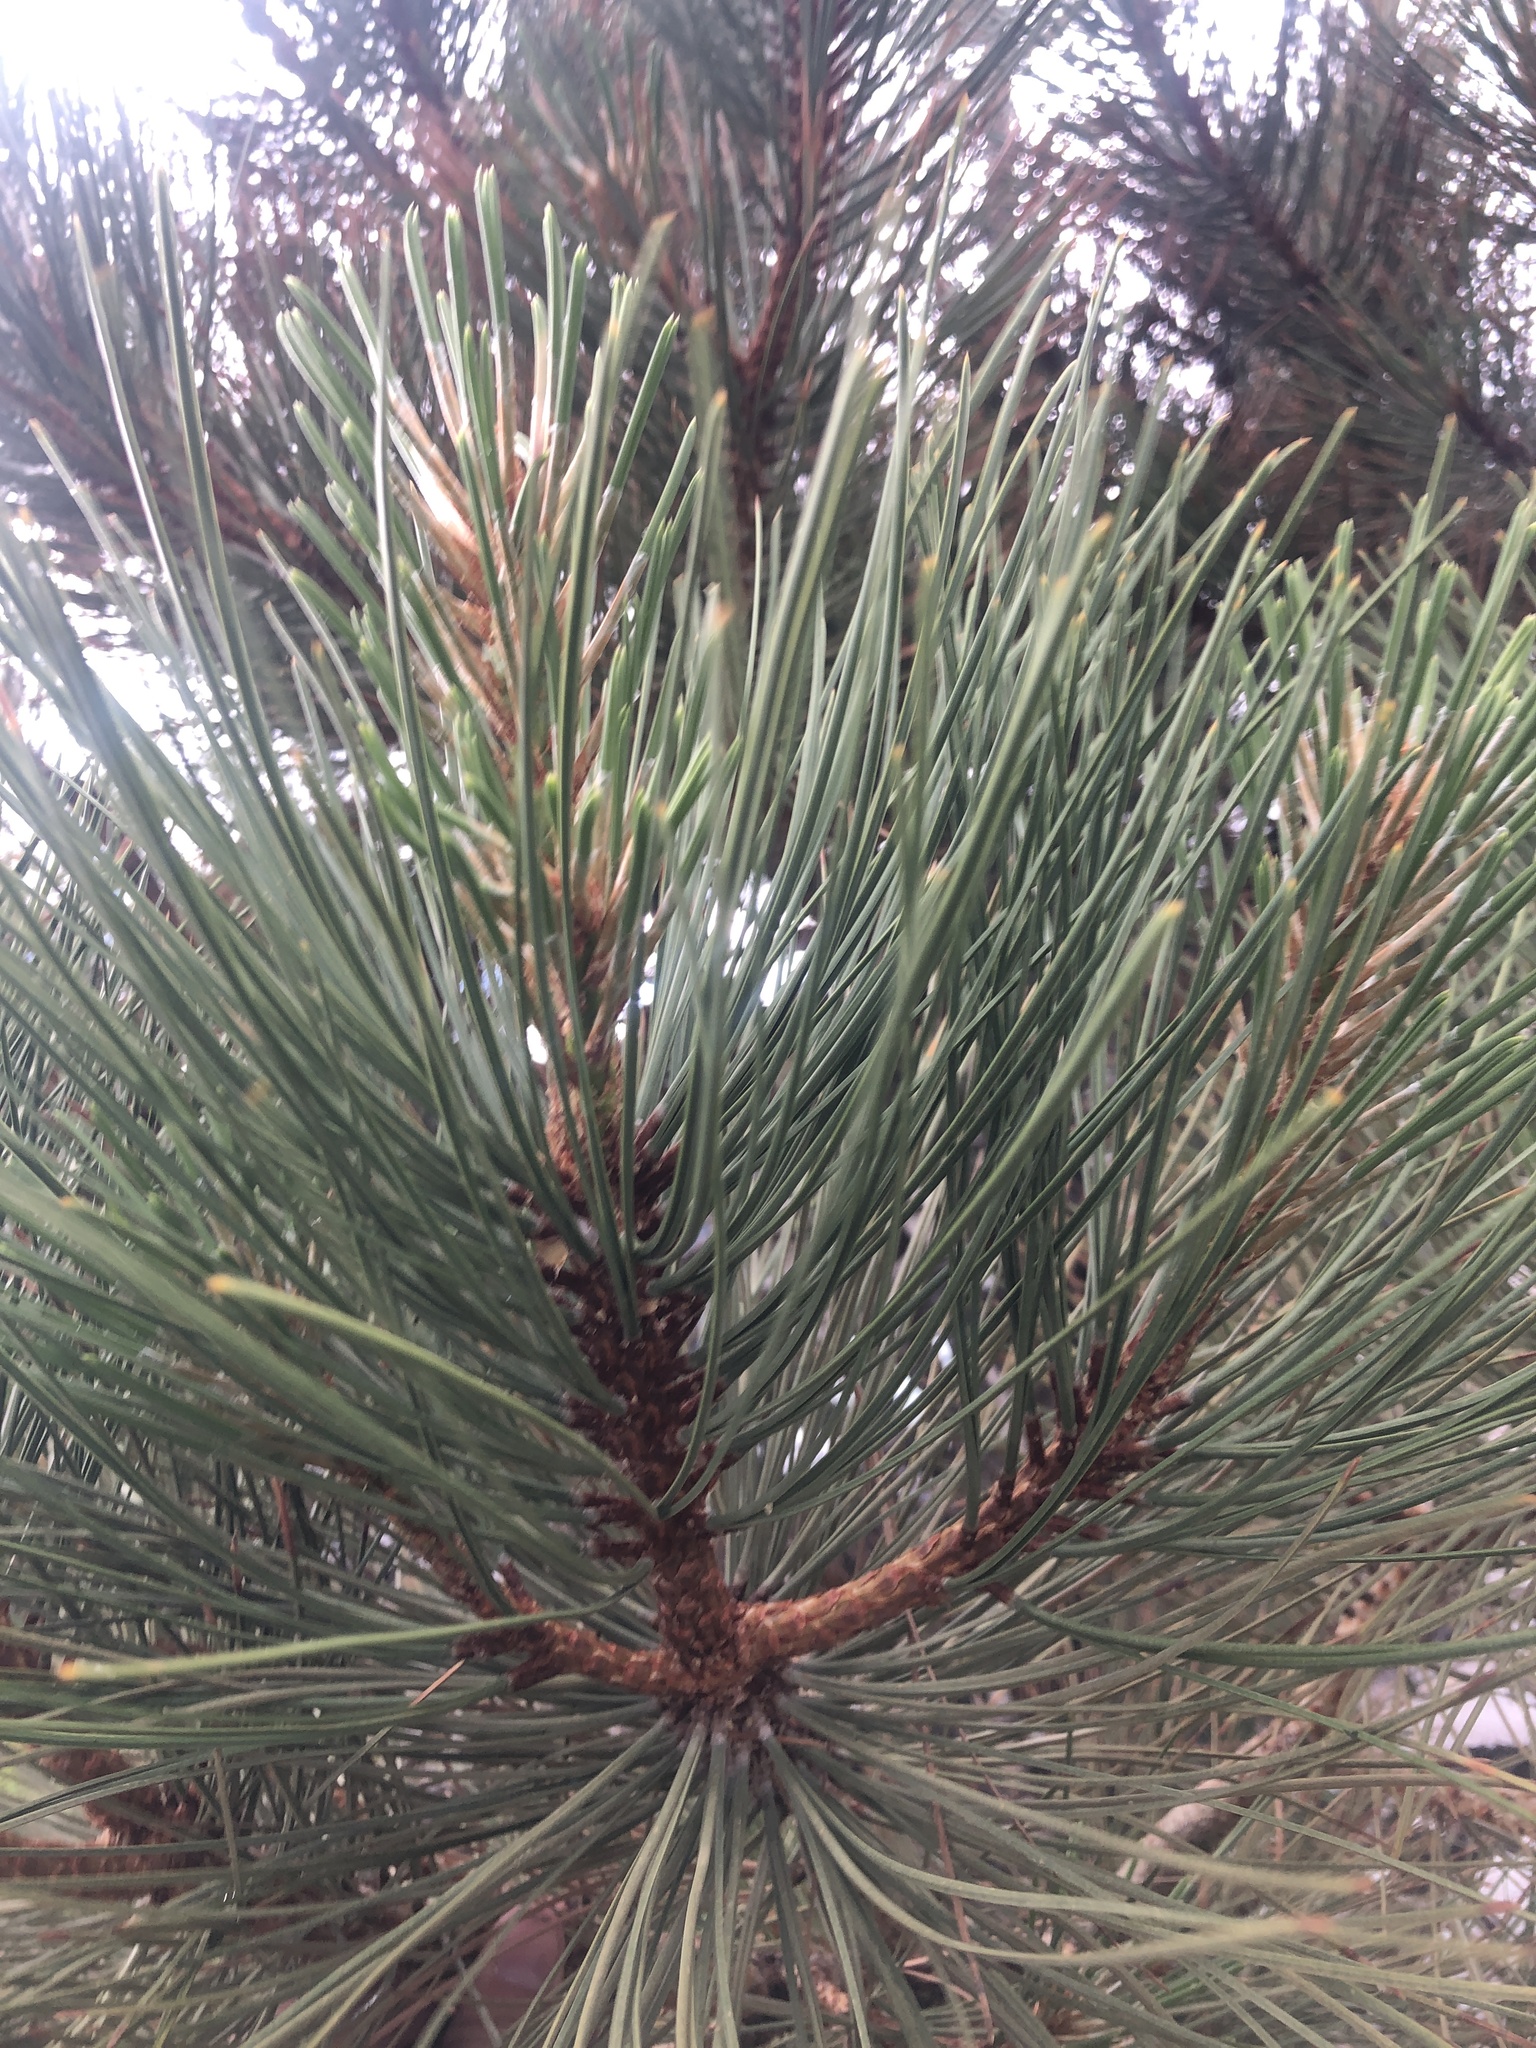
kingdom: Plantae
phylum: Tracheophyta
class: Pinopsida
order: Pinales
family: Pinaceae
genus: Pinus
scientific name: Pinus ponderosa
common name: Western yellow-pine
